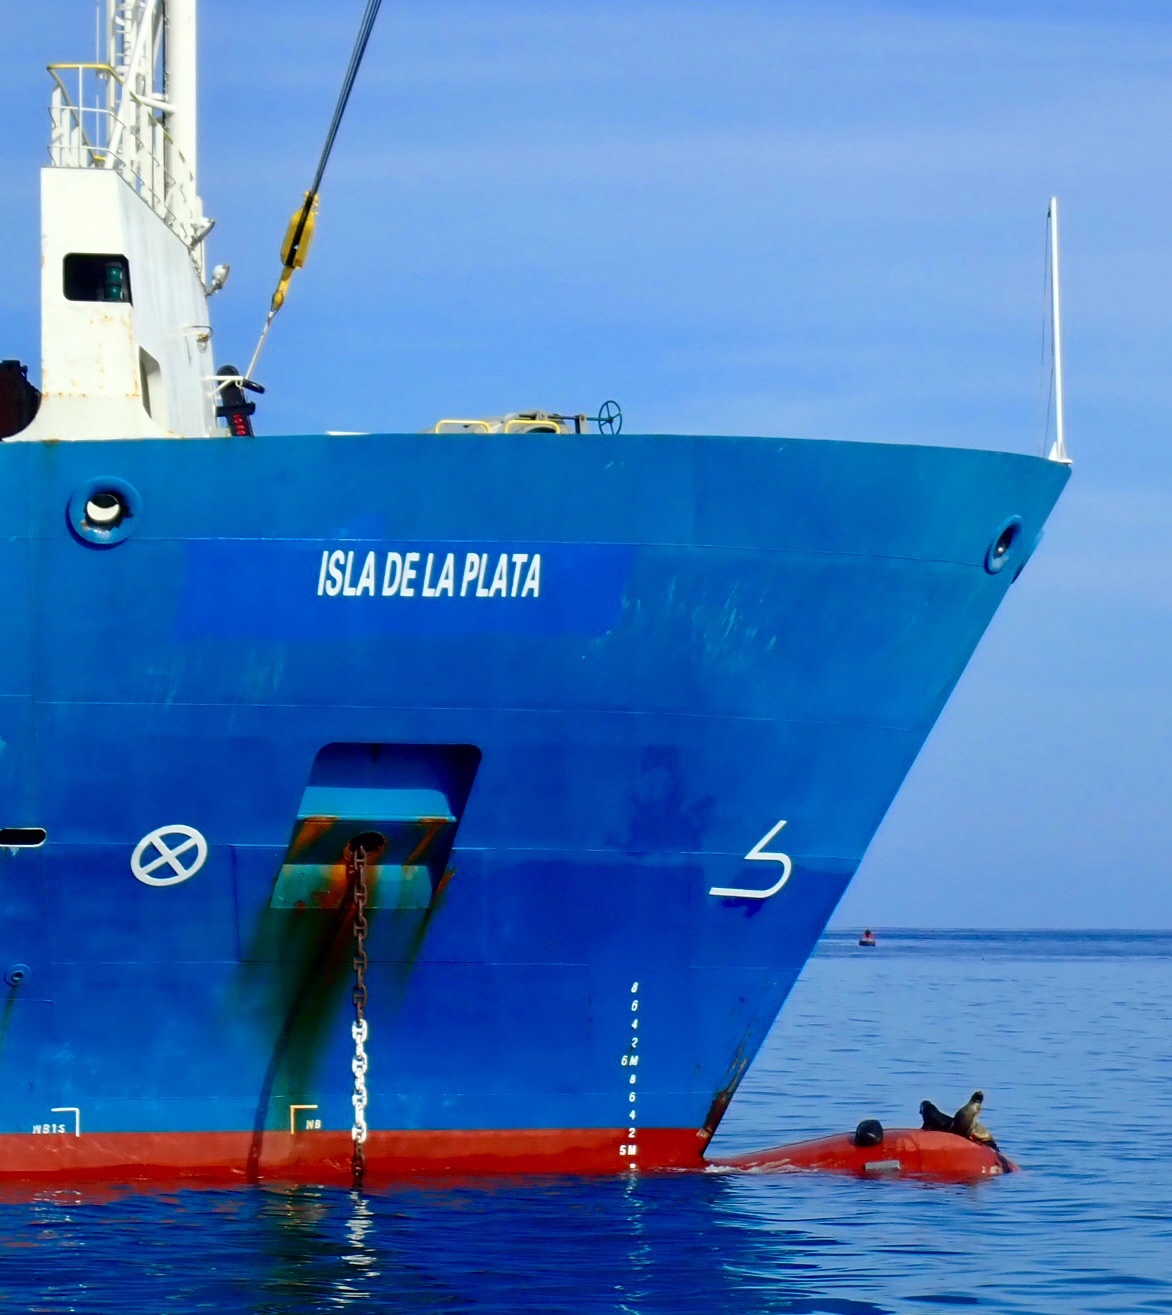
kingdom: Animalia
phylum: Chordata
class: Mammalia
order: Carnivora
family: Otariidae
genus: Zalophus
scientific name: Zalophus wollebaeki
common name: Galapagos sea lion
